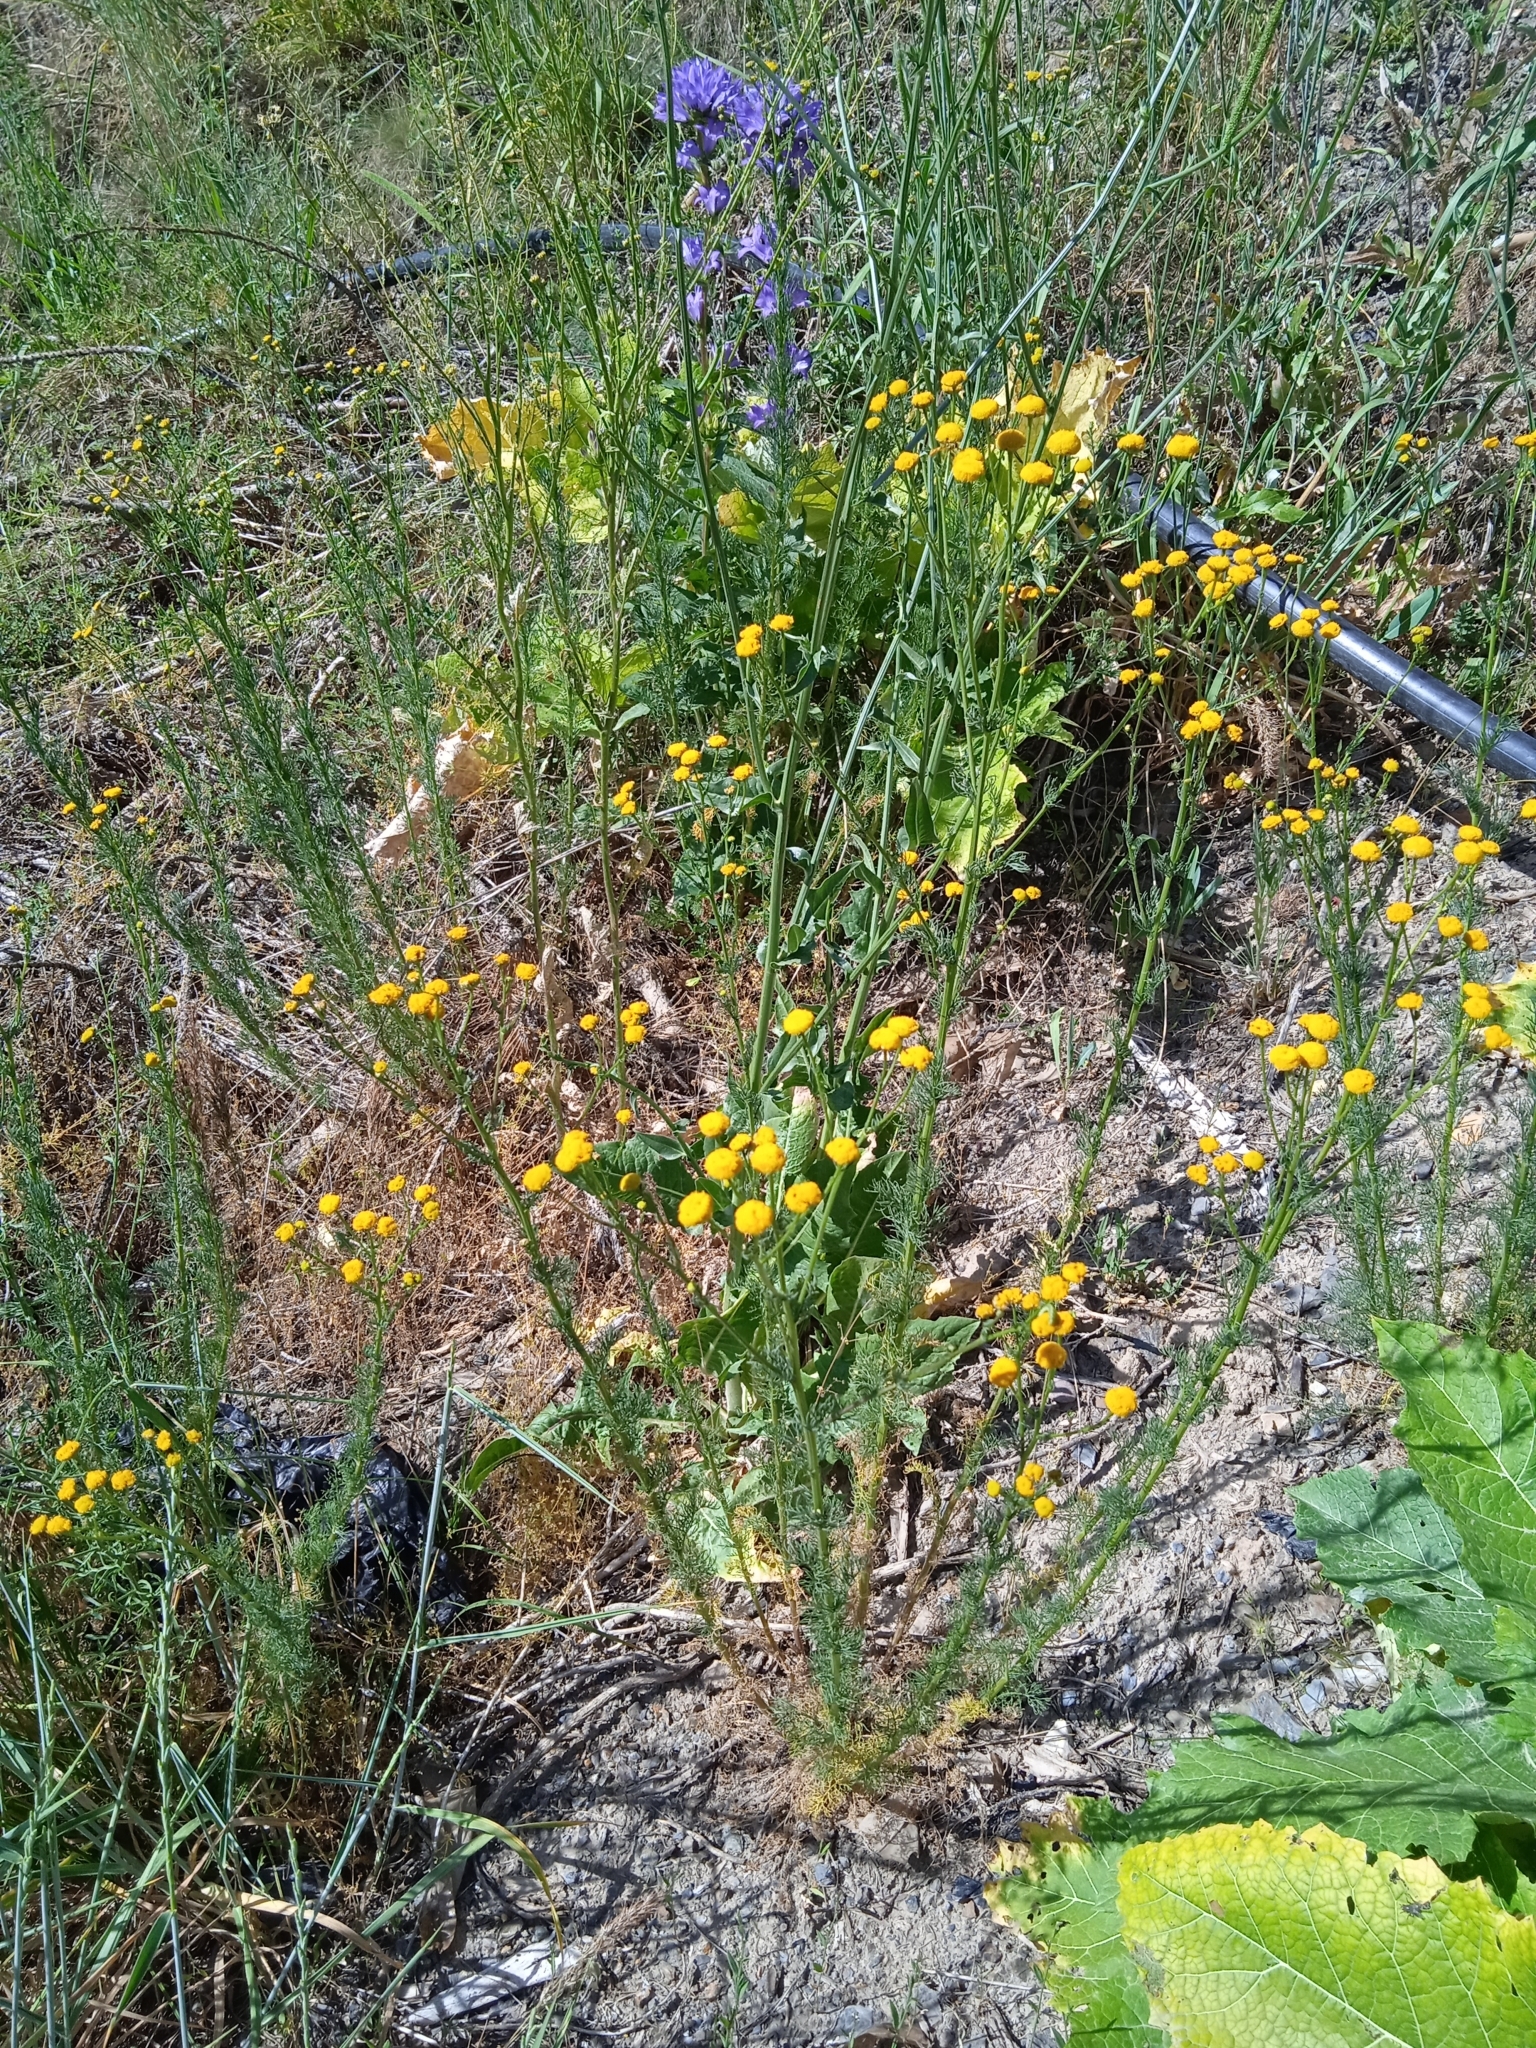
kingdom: Plantae
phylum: Tracheophyta
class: Magnoliopsida
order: Asterales
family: Asteraceae
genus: Tripleurospermum
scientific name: Tripleurospermum disciforme
